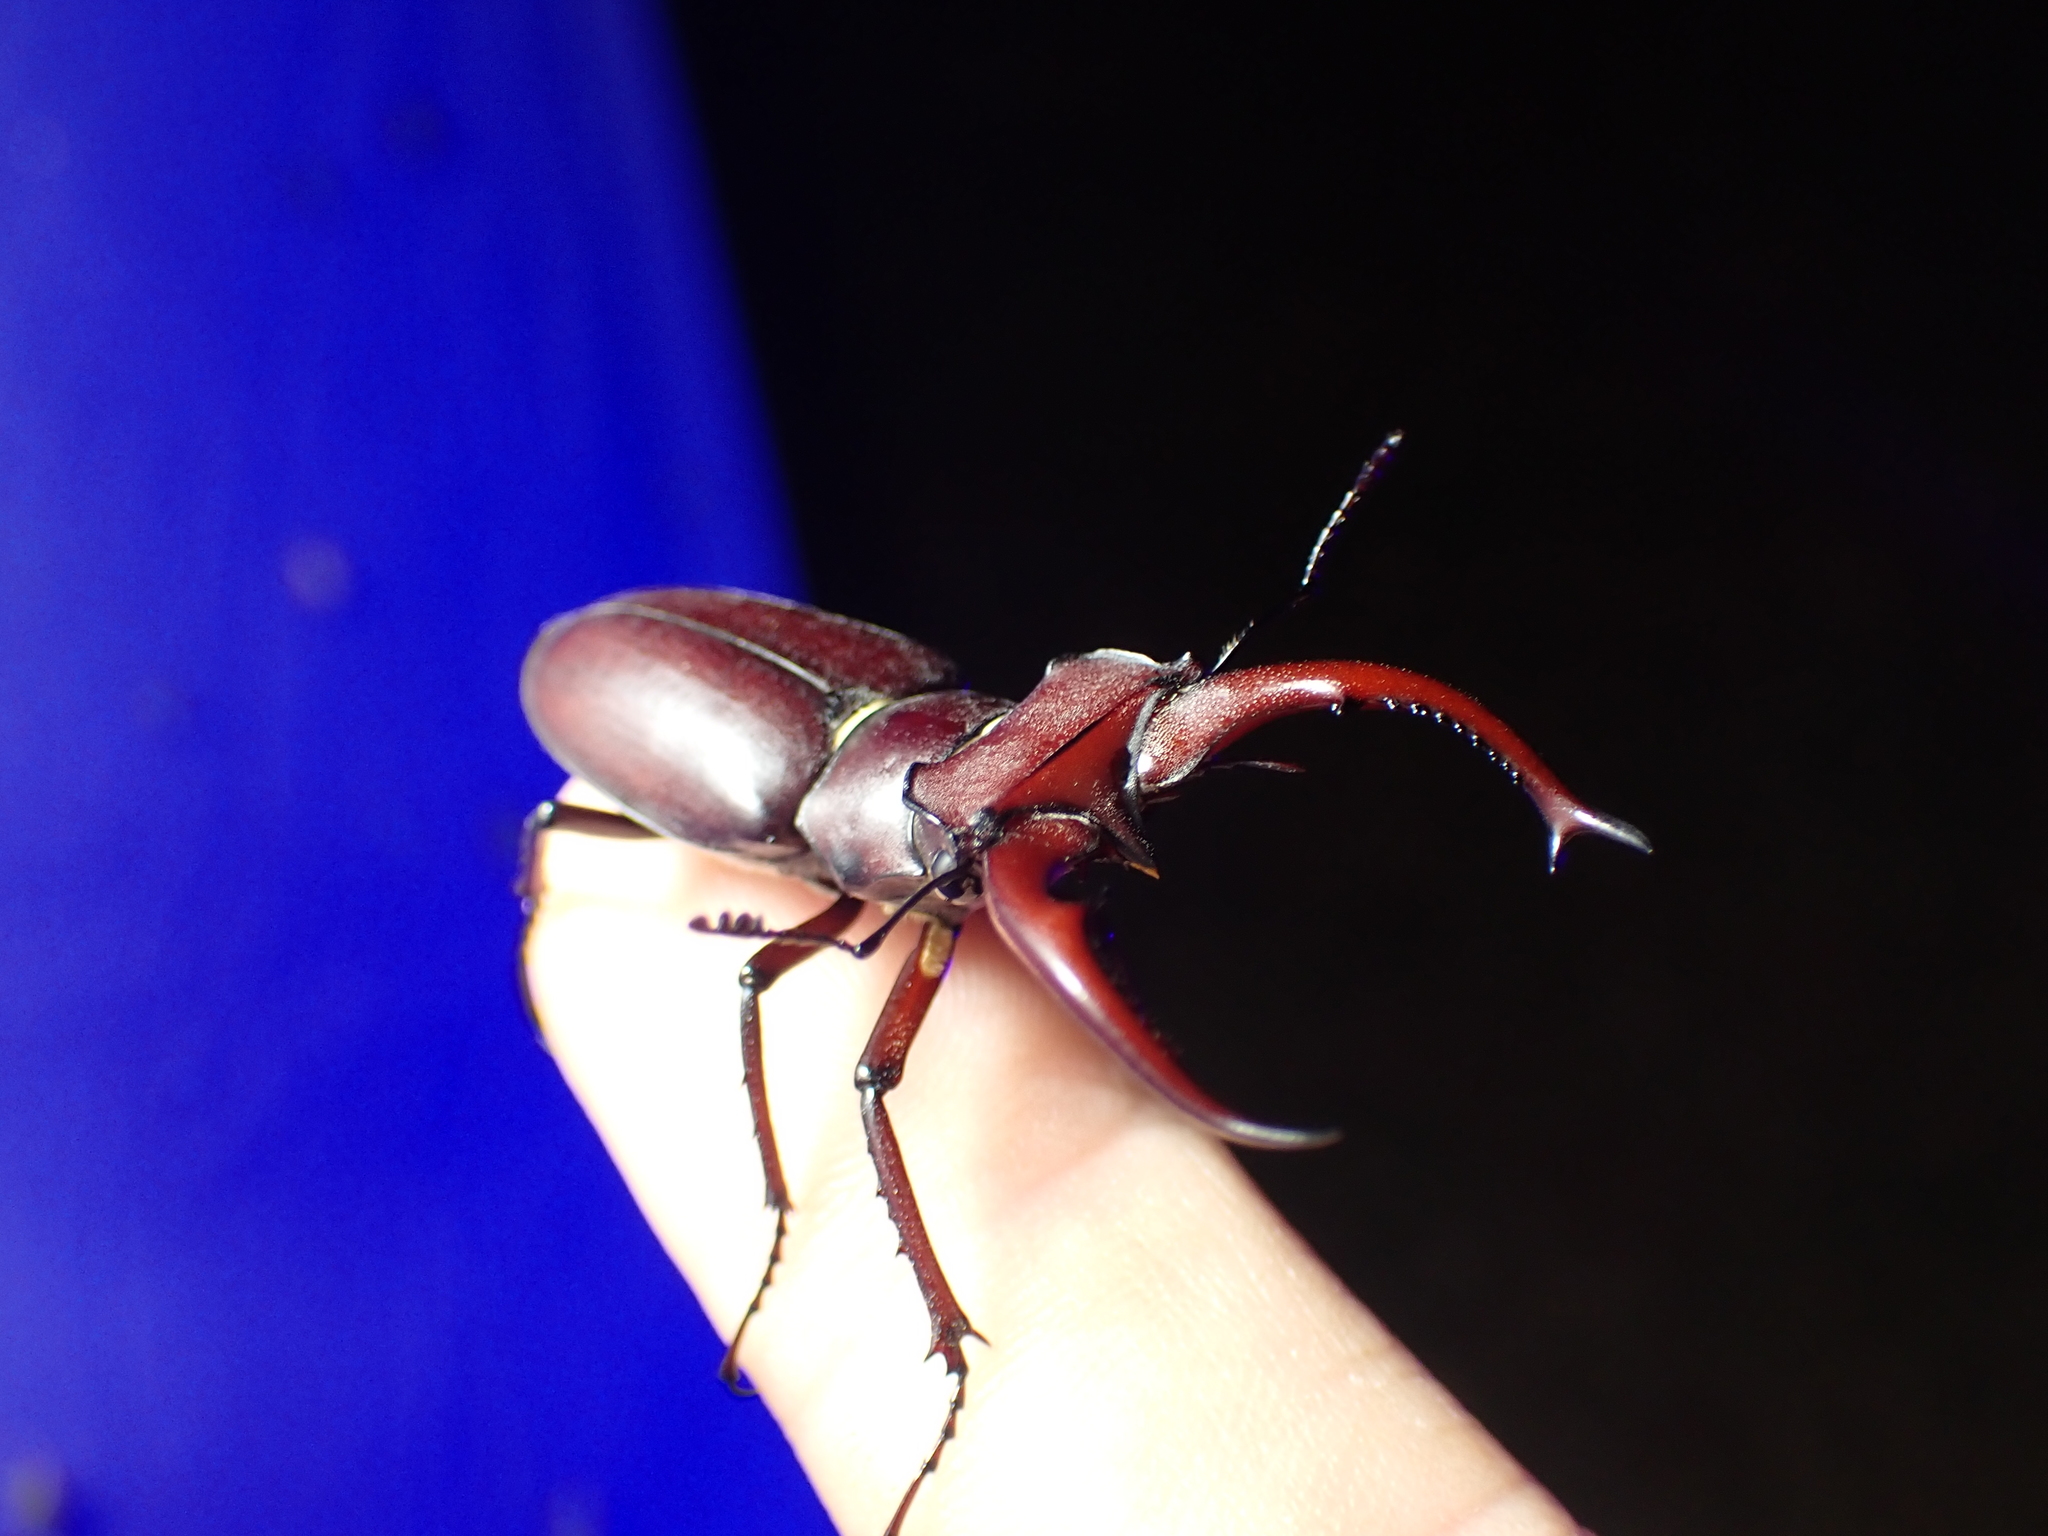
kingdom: Animalia
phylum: Arthropoda
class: Insecta
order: Coleoptera
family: Lucanidae
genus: Lucanus
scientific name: Lucanus elaphus
